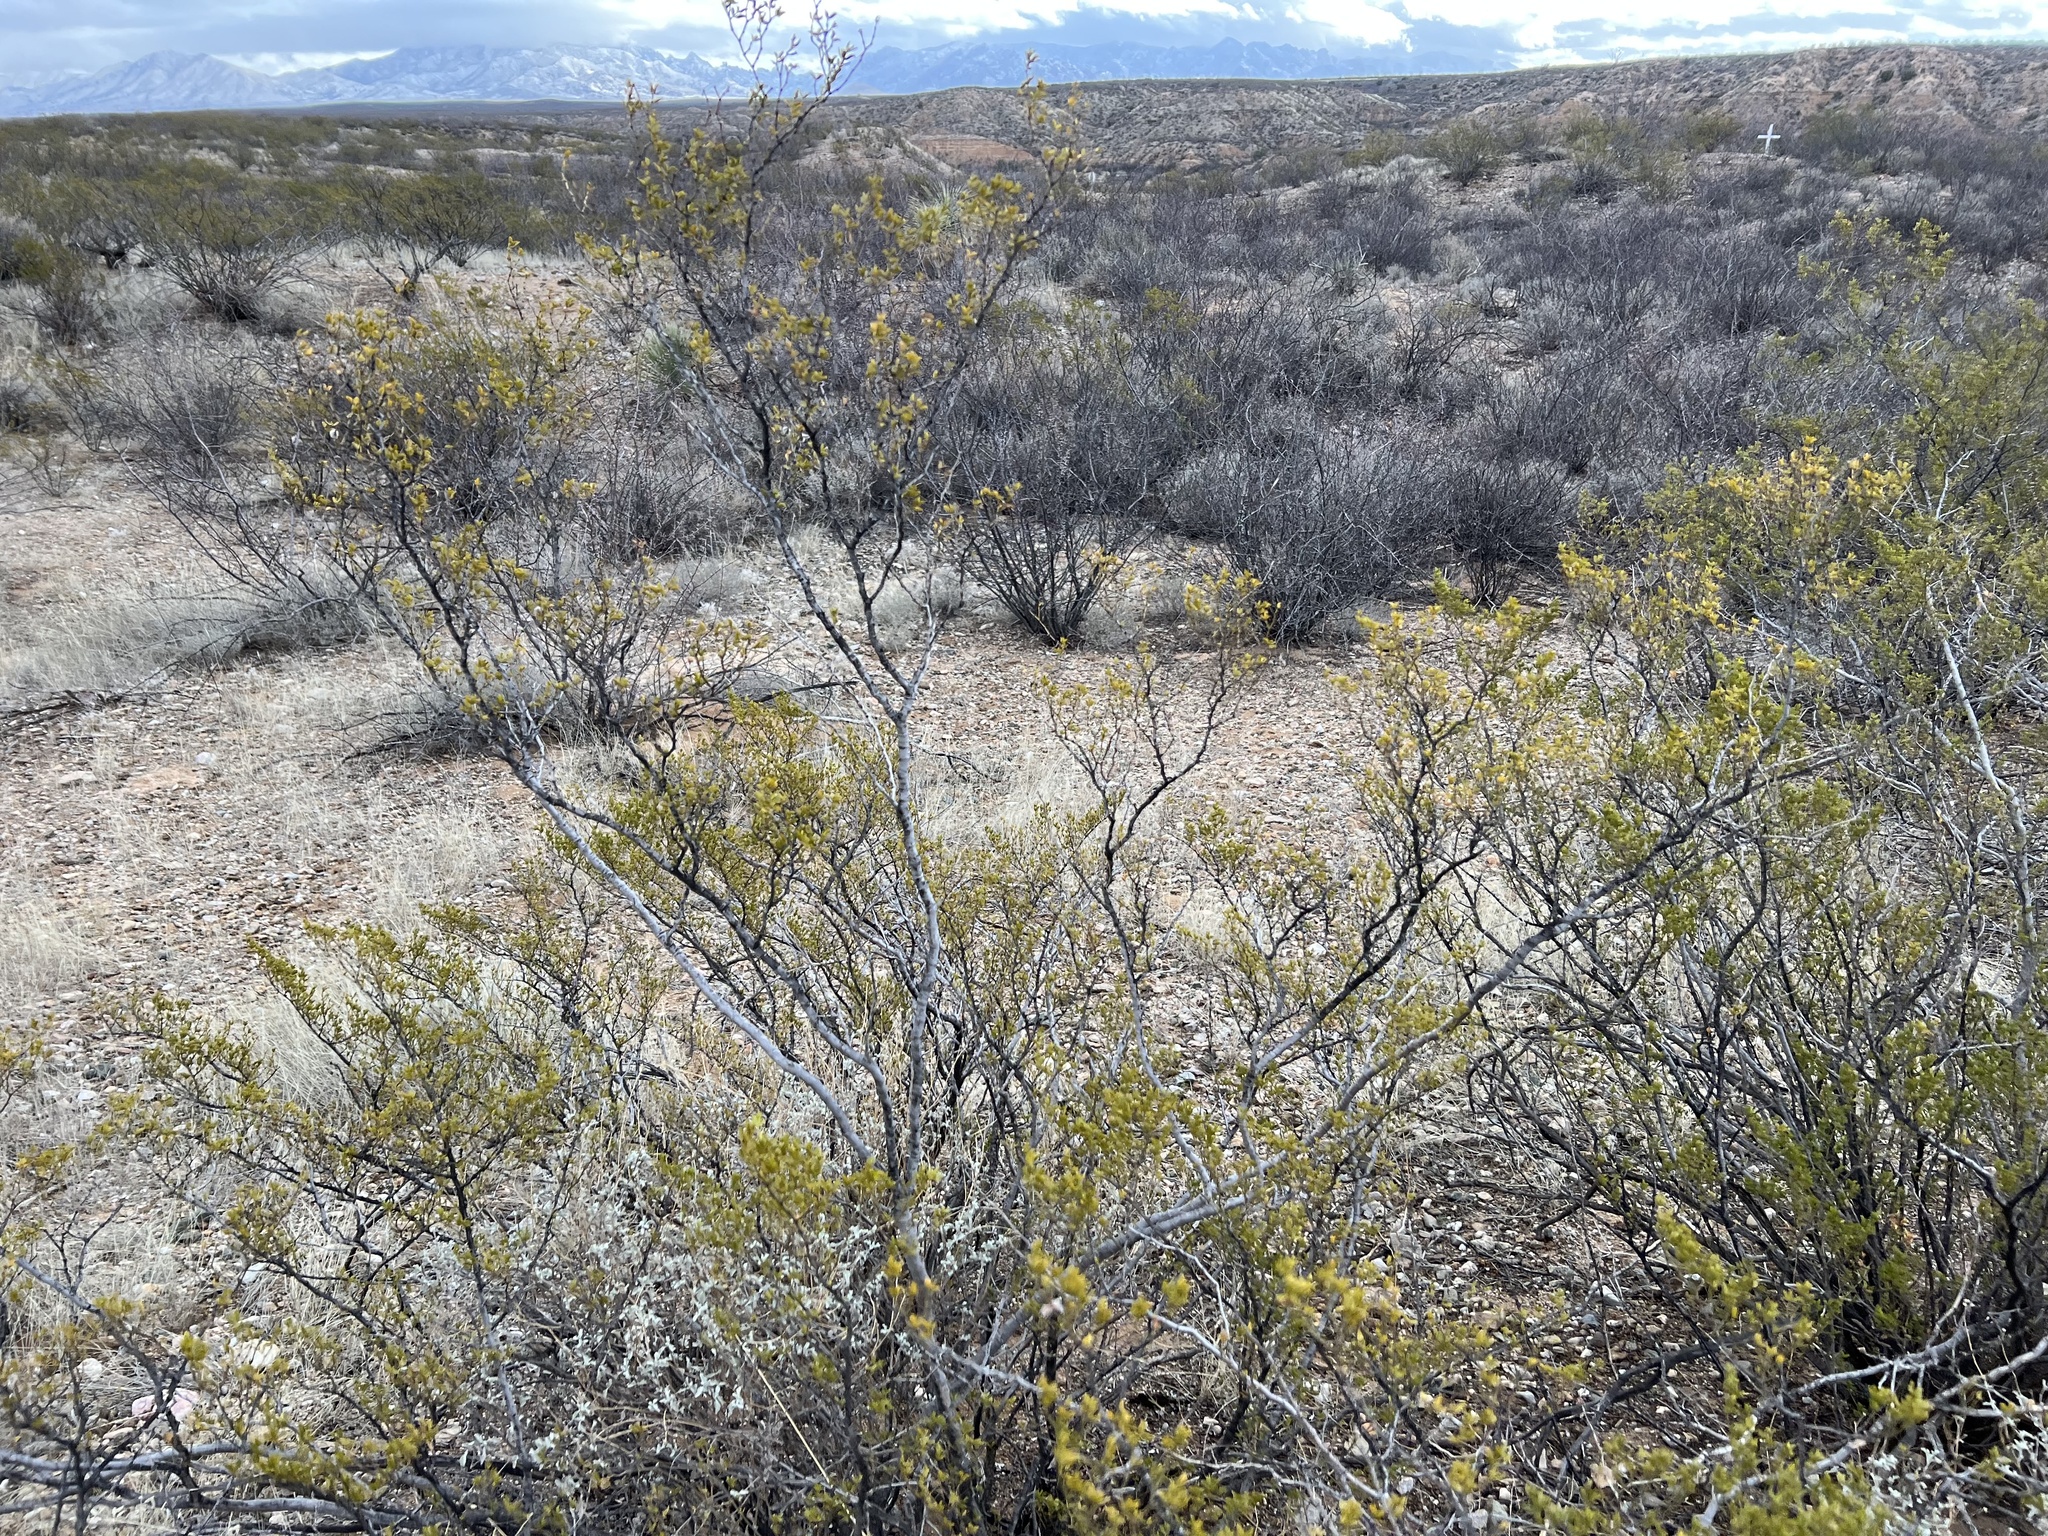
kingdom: Plantae
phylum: Tracheophyta
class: Magnoliopsida
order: Zygophyllales
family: Zygophyllaceae
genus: Larrea
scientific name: Larrea tridentata
